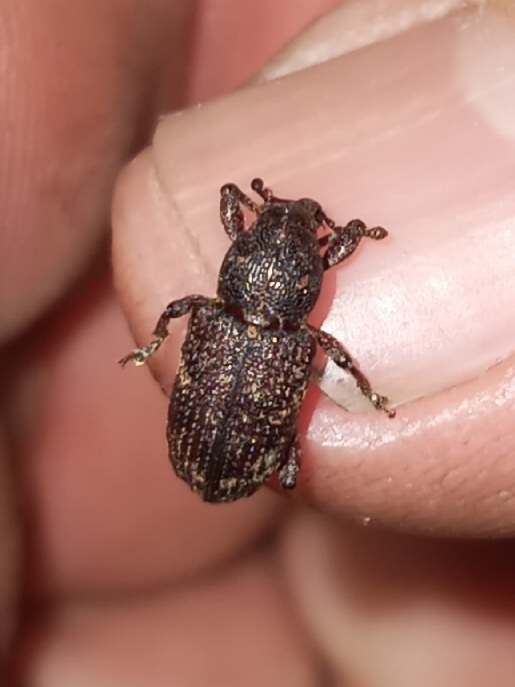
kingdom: Animalia
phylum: Arthropoda
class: Insecta
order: Coleoptera
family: Curculionidae
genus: Pachylobius
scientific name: Pachylobius picivorus
